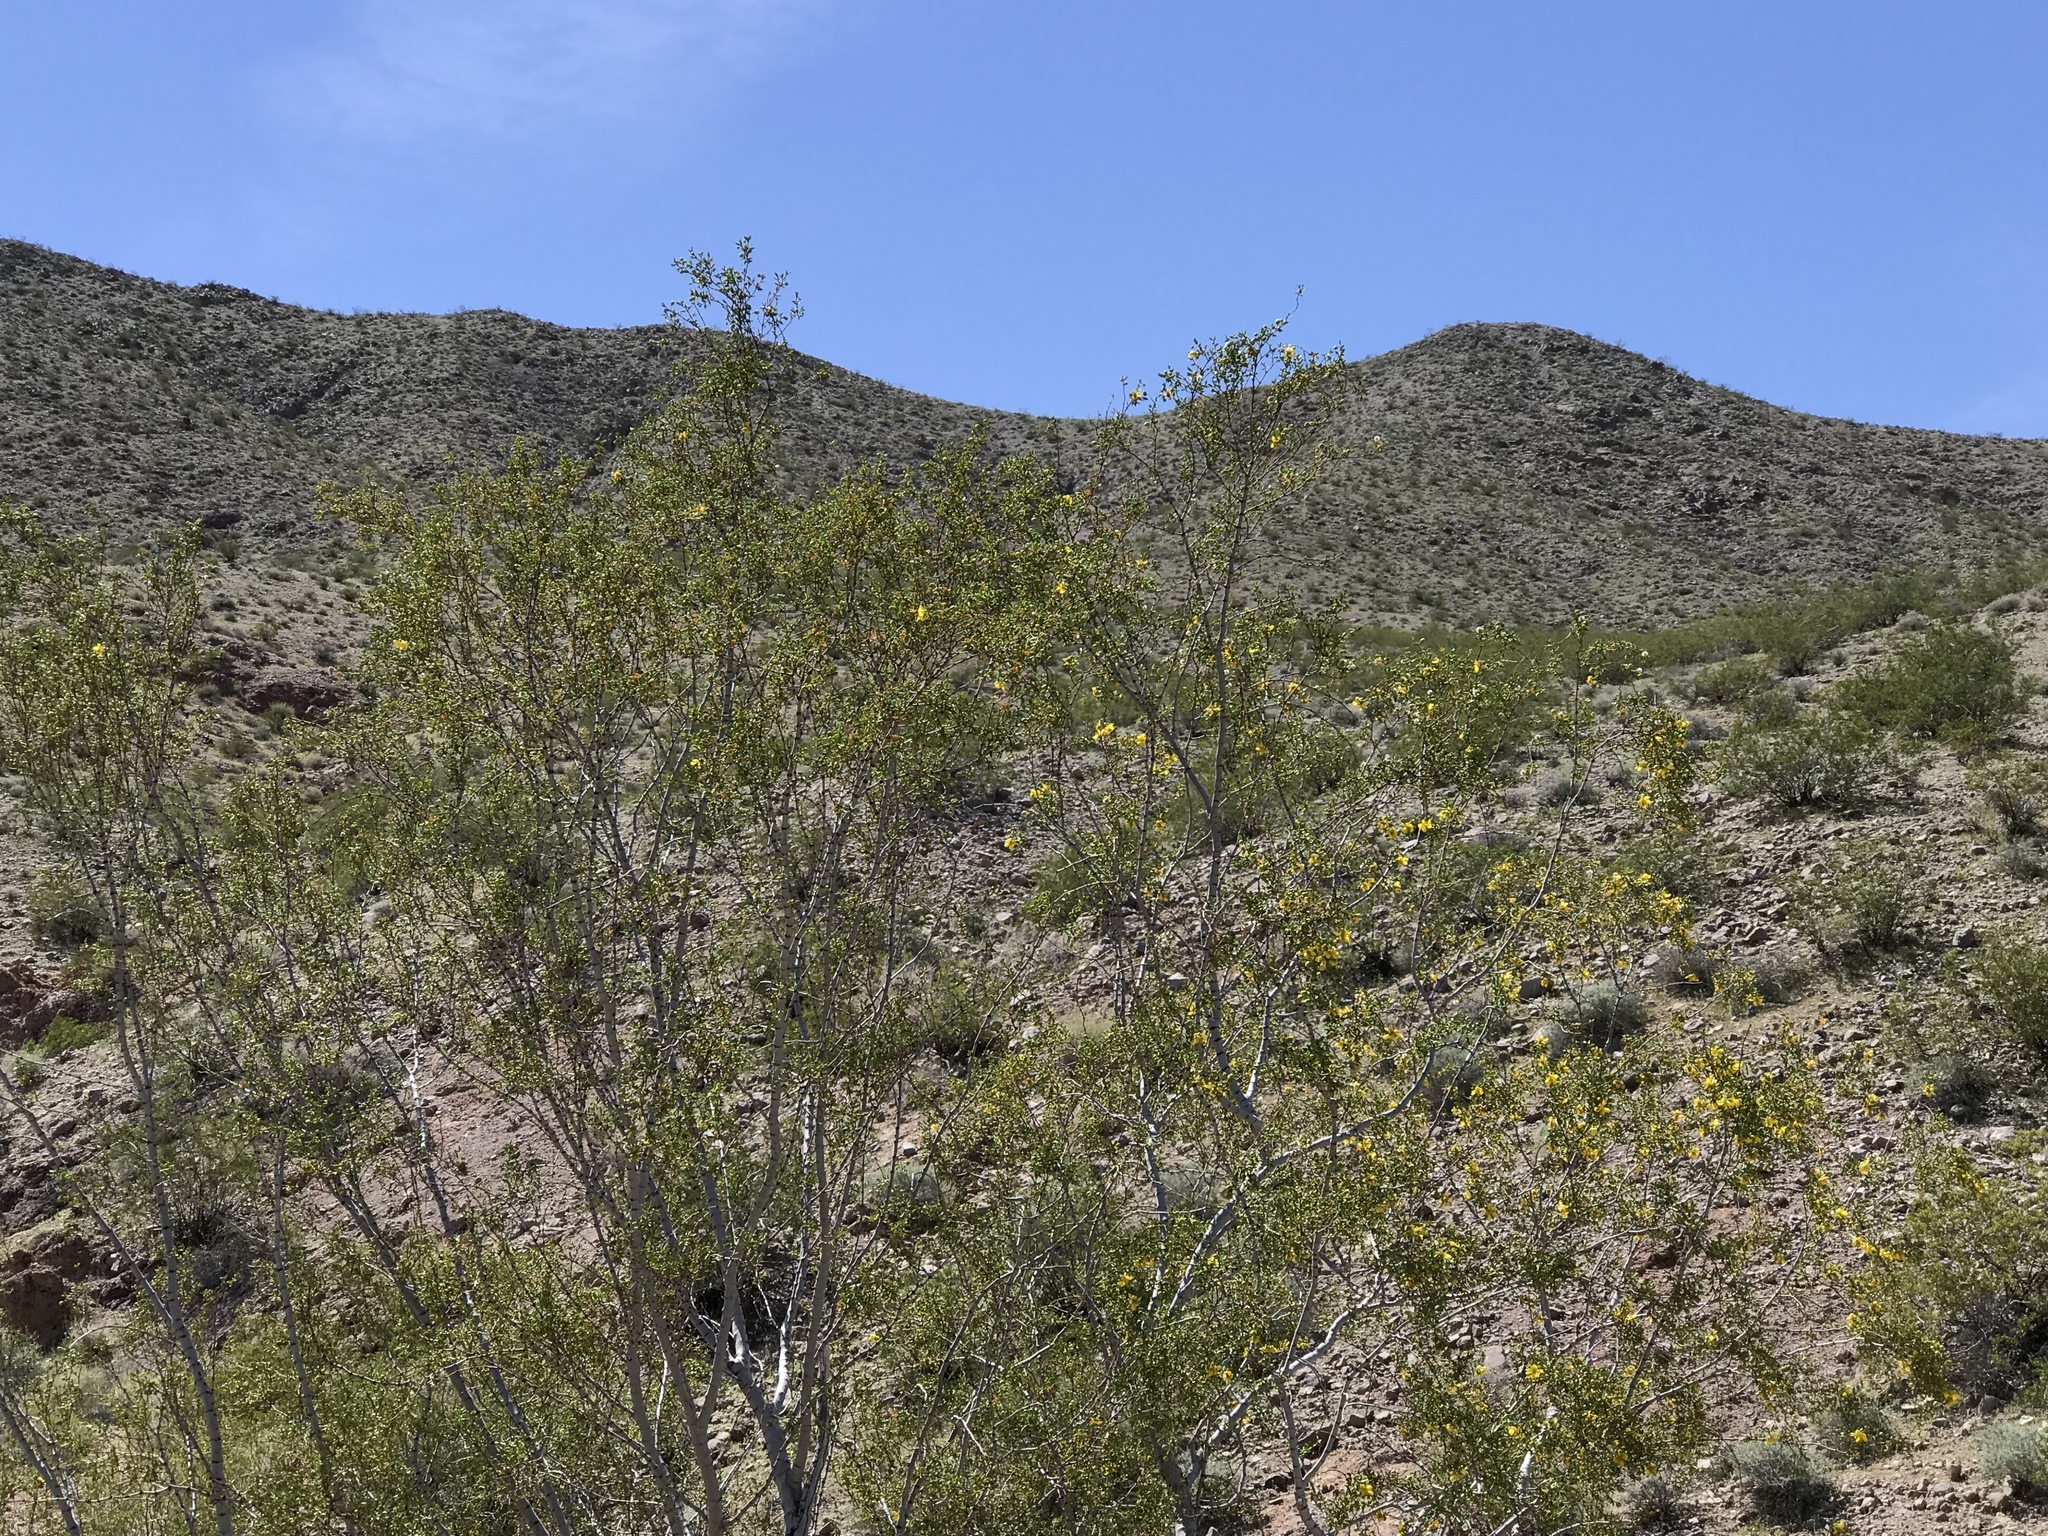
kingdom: Plantae
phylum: Tracheophyta
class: Magnoliopsida
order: Zygophyllales
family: Zygophyllaceae
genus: Larrea
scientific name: Larrea tridentata
